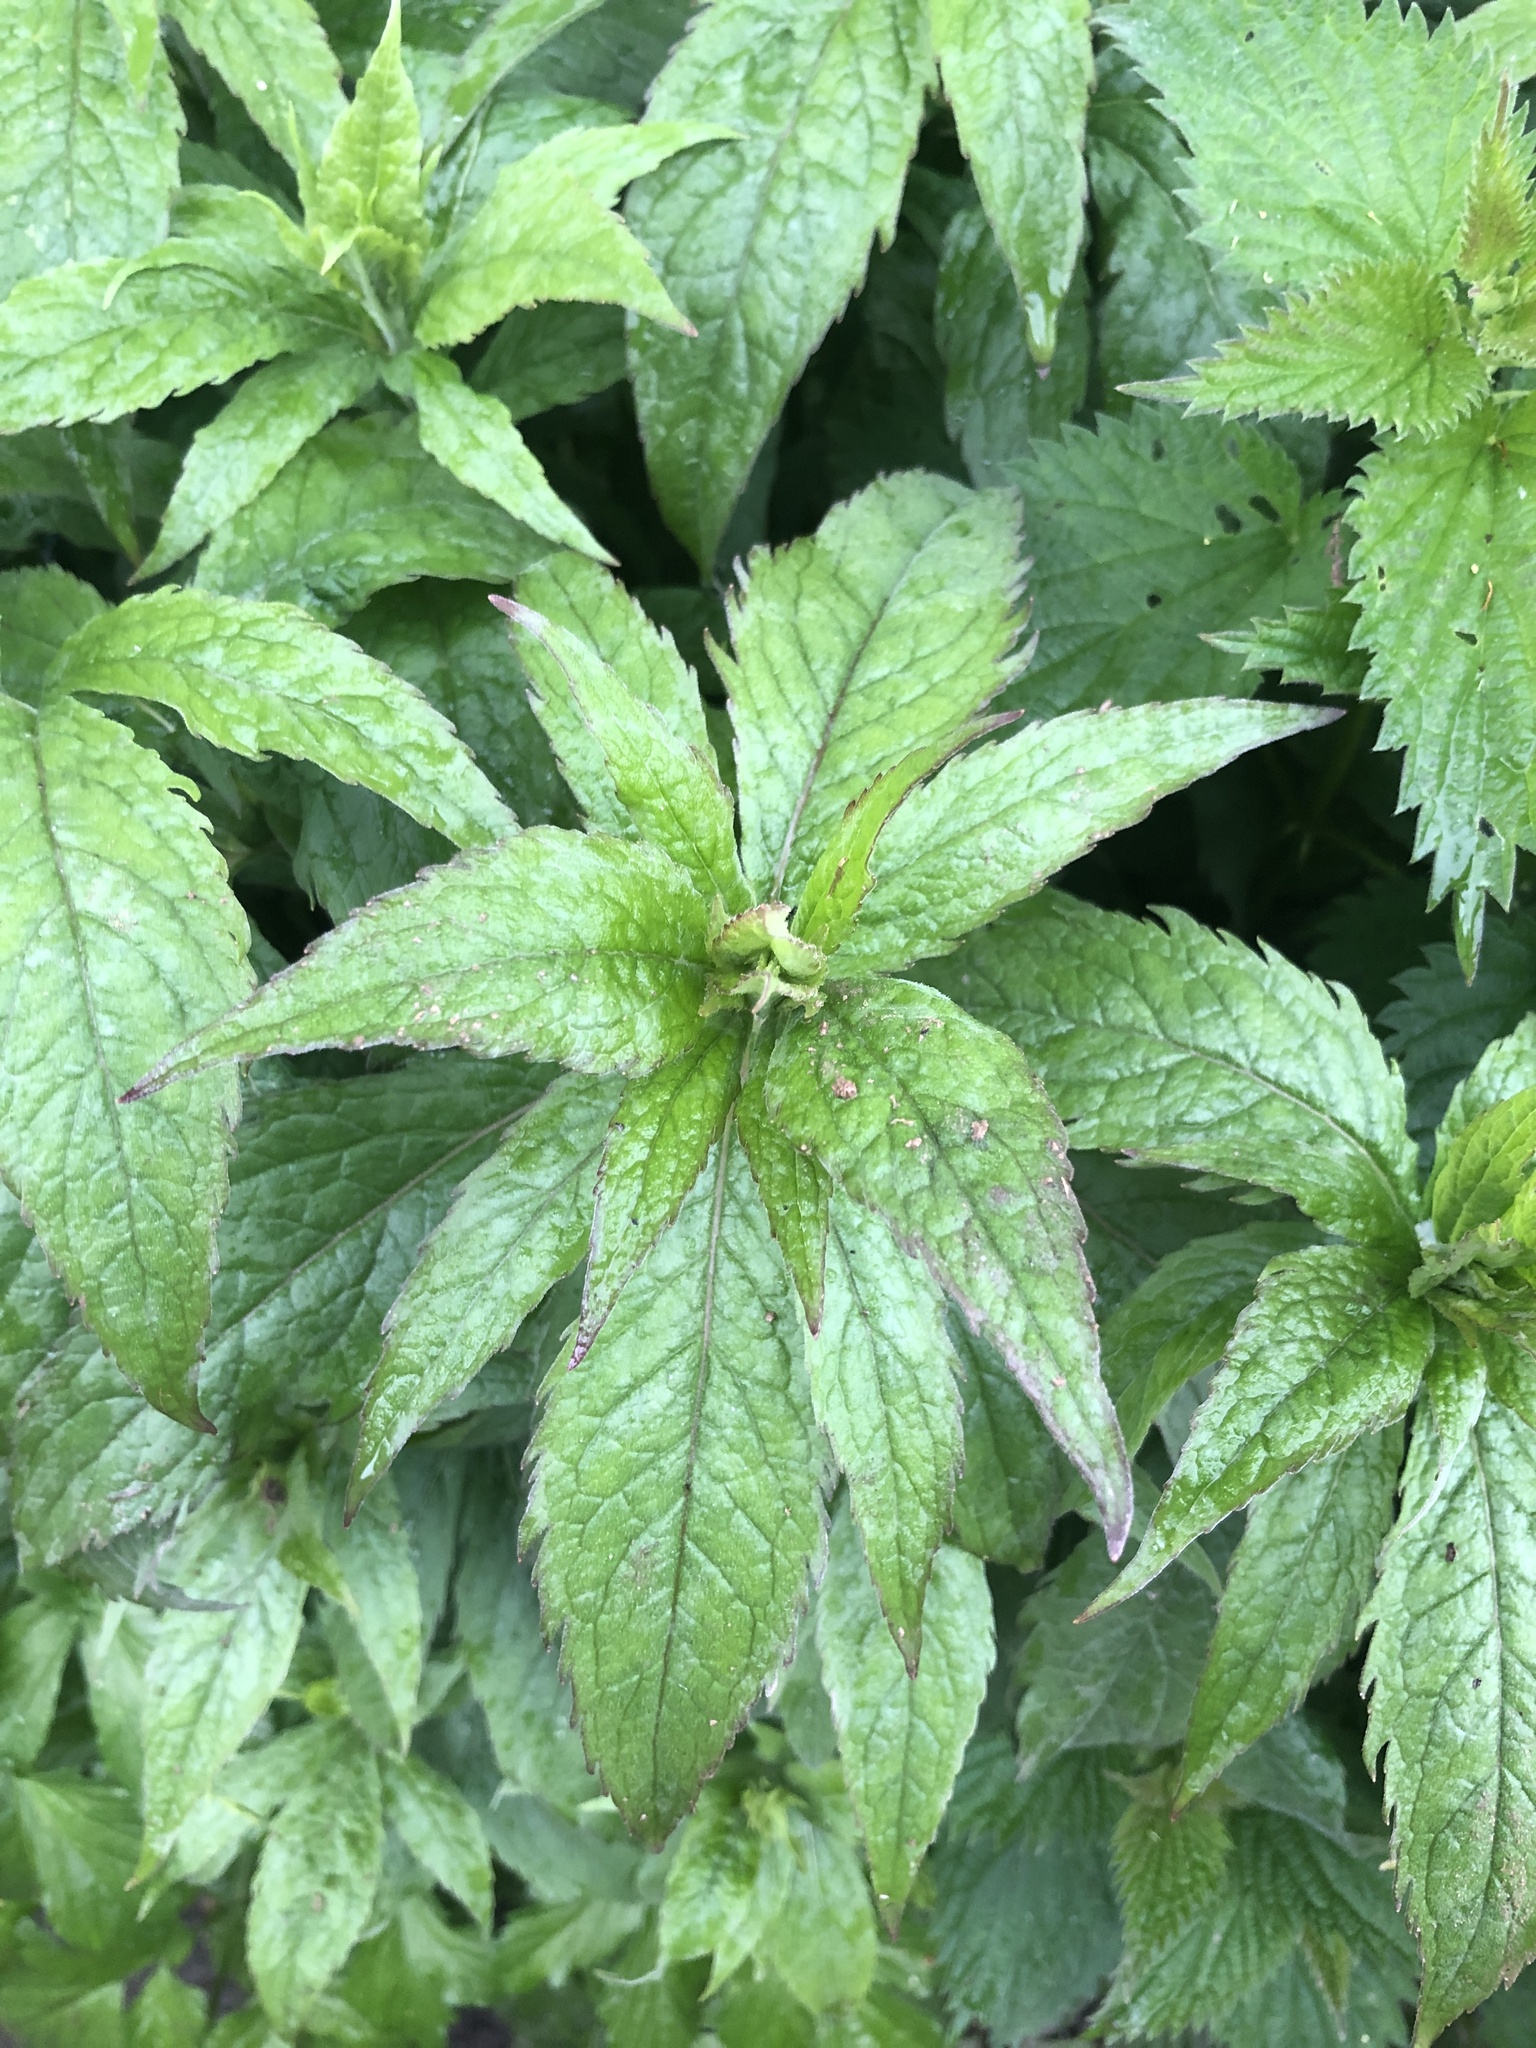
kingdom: Plantae
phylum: Tracheophyta
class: Magnoliopsida
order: Asterales
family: Asteraceae
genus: Eupatorium
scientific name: Eupatorium cannabinum
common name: Hemp-agrimony
